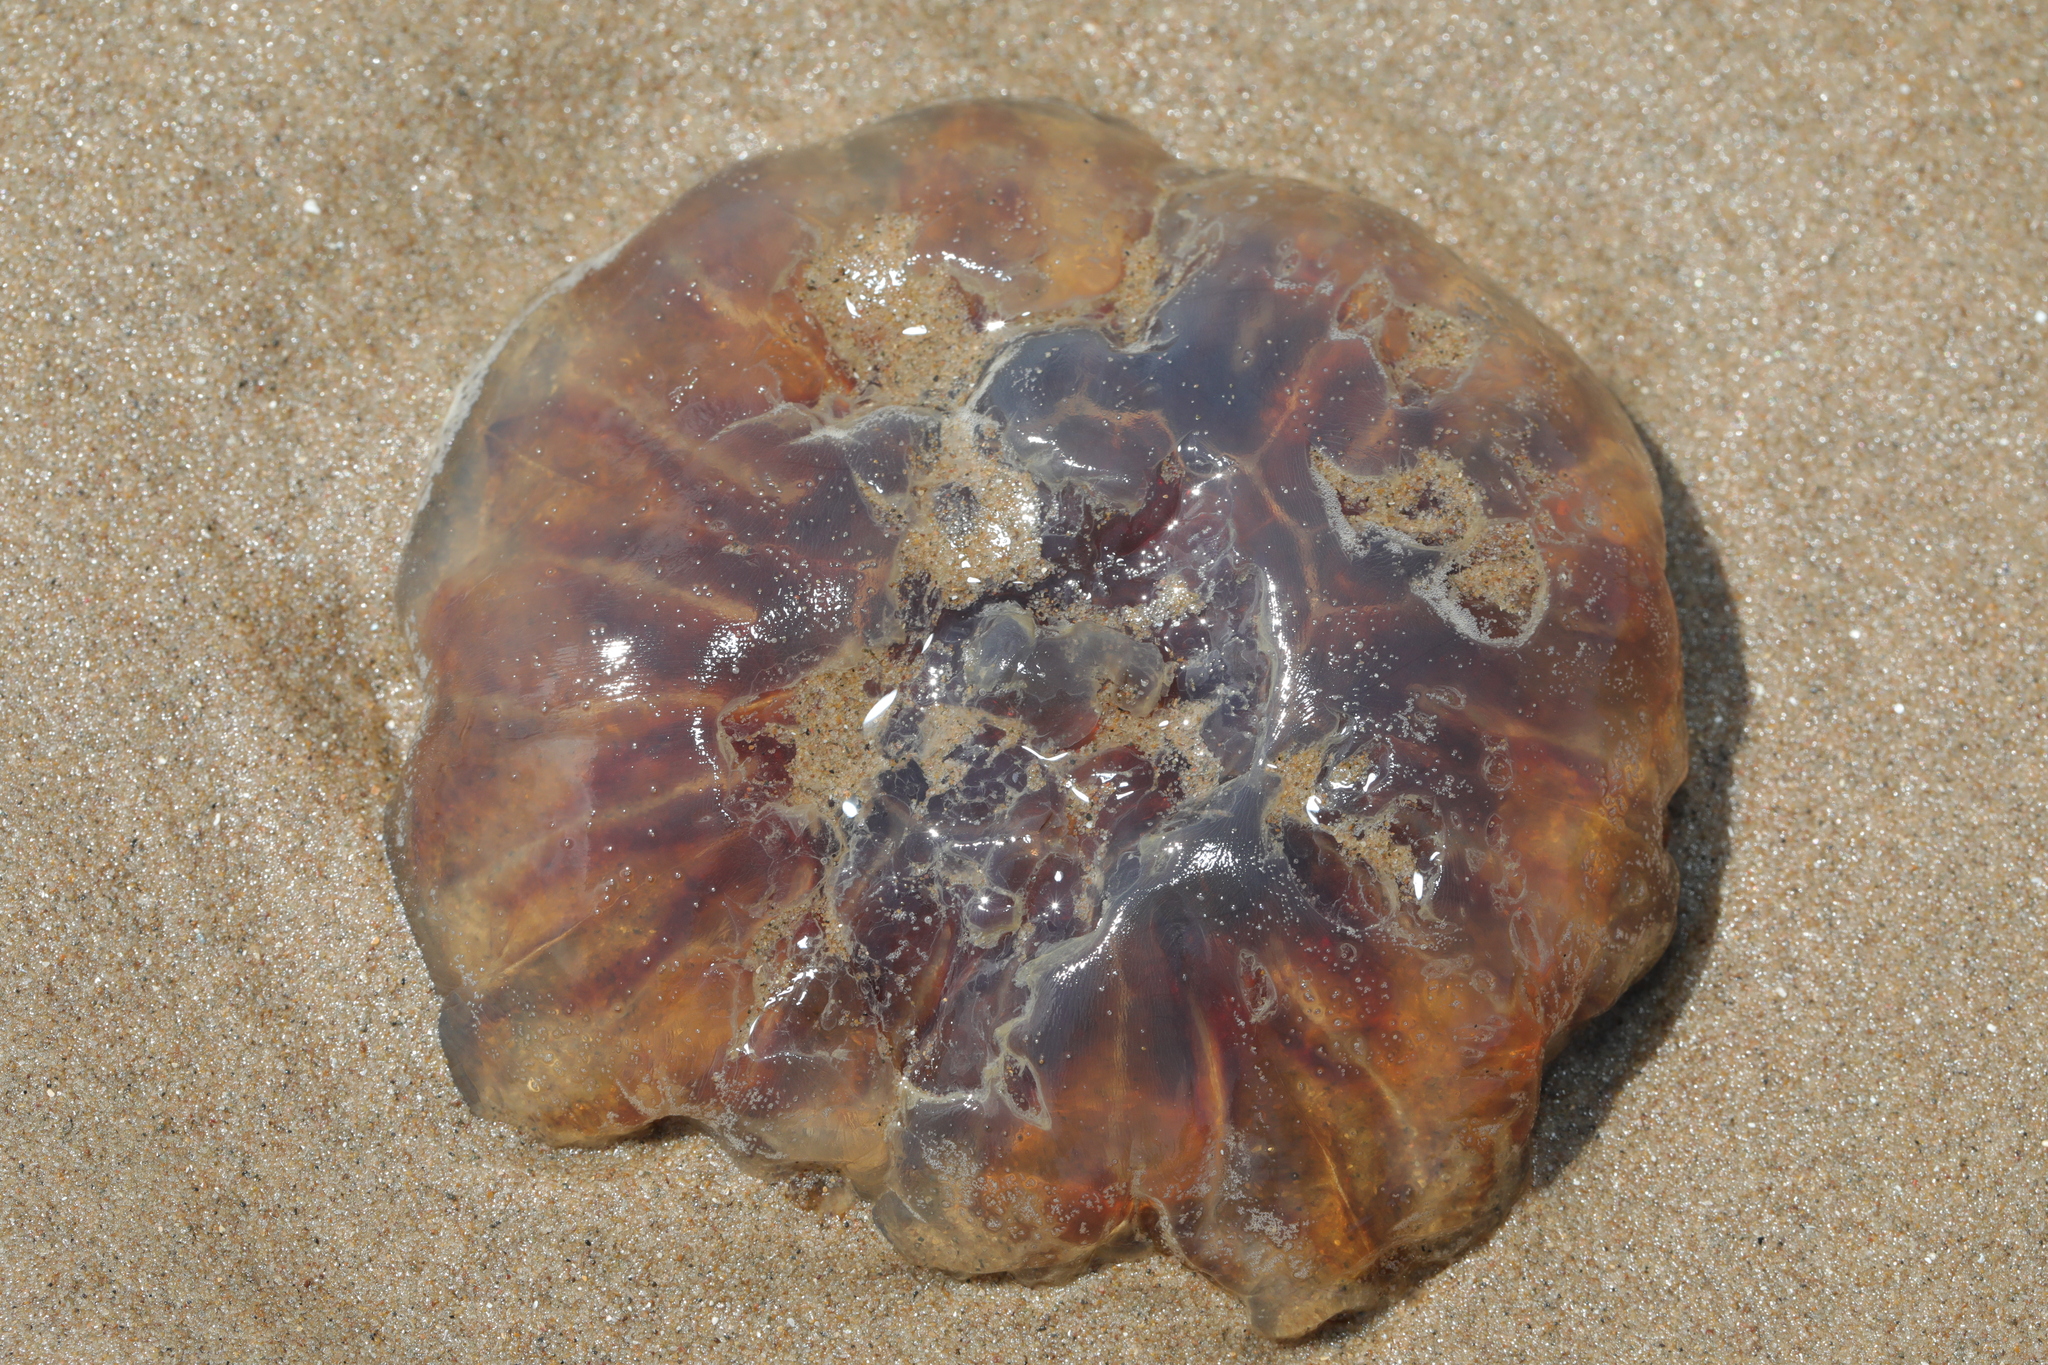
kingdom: Animalia
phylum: Cnidaria
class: Scyphozoa
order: Semaeostomeae
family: Cyaneidae
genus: Cyanea
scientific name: Cyanea capillata
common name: Lion's mane jellyfish
